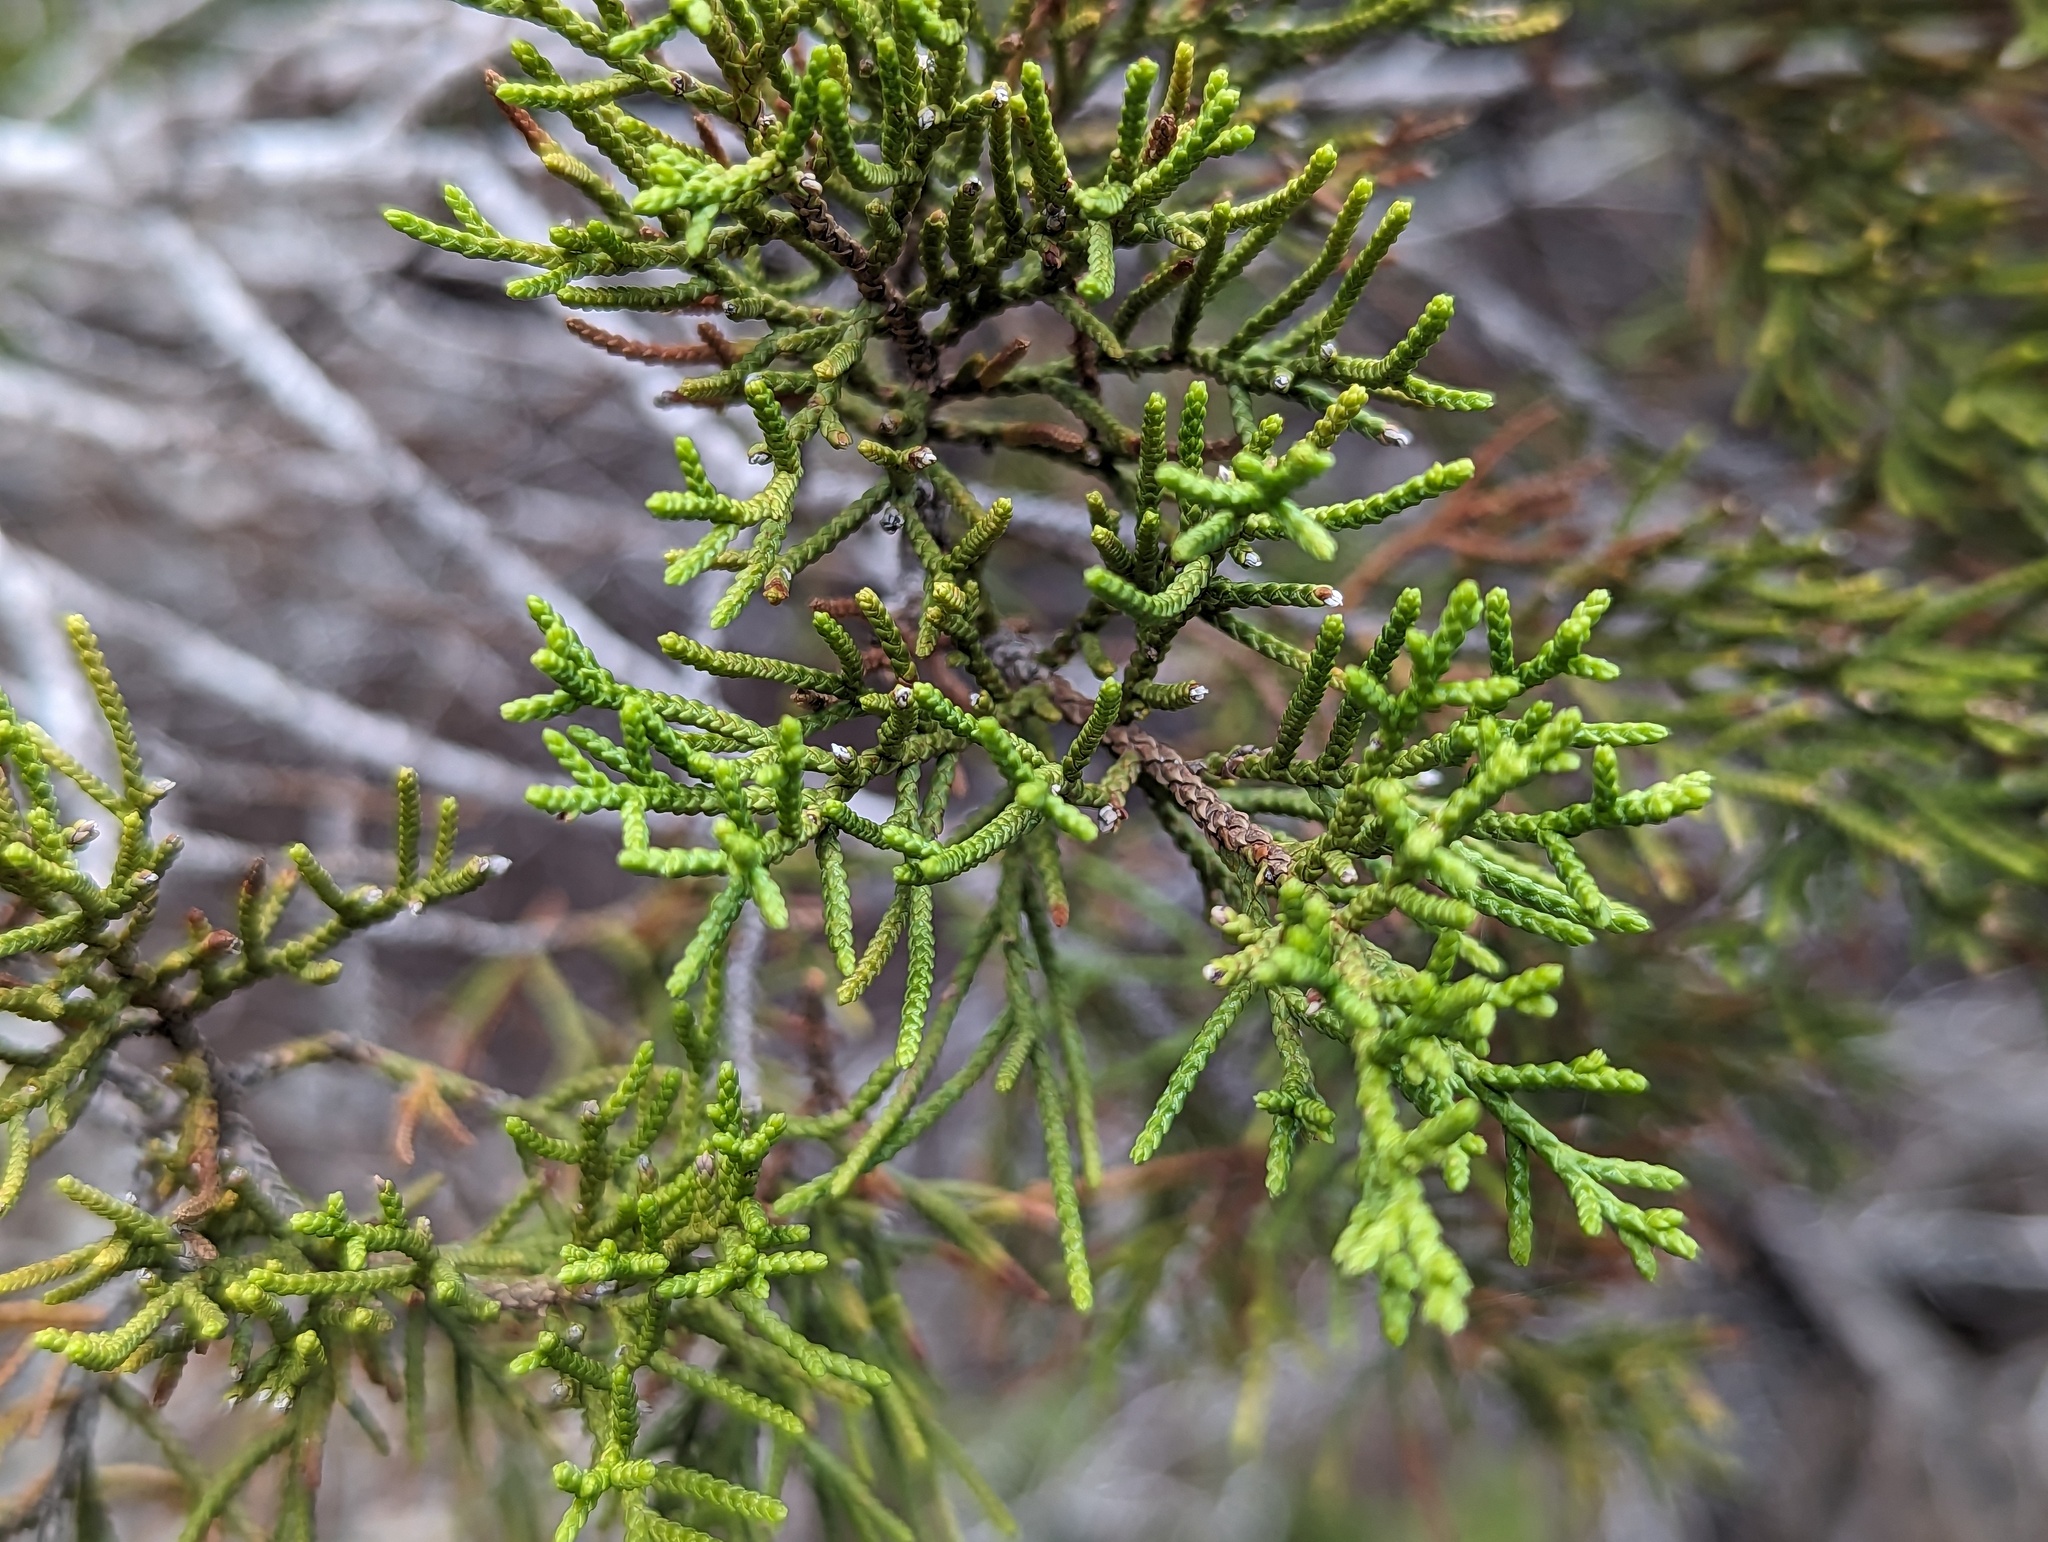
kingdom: Plantae
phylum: Tracheophyta
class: Pinopsida
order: Pinales
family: Cupressaceae
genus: Juniperus
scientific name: Juniperus ashei
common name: Mexican juniper
